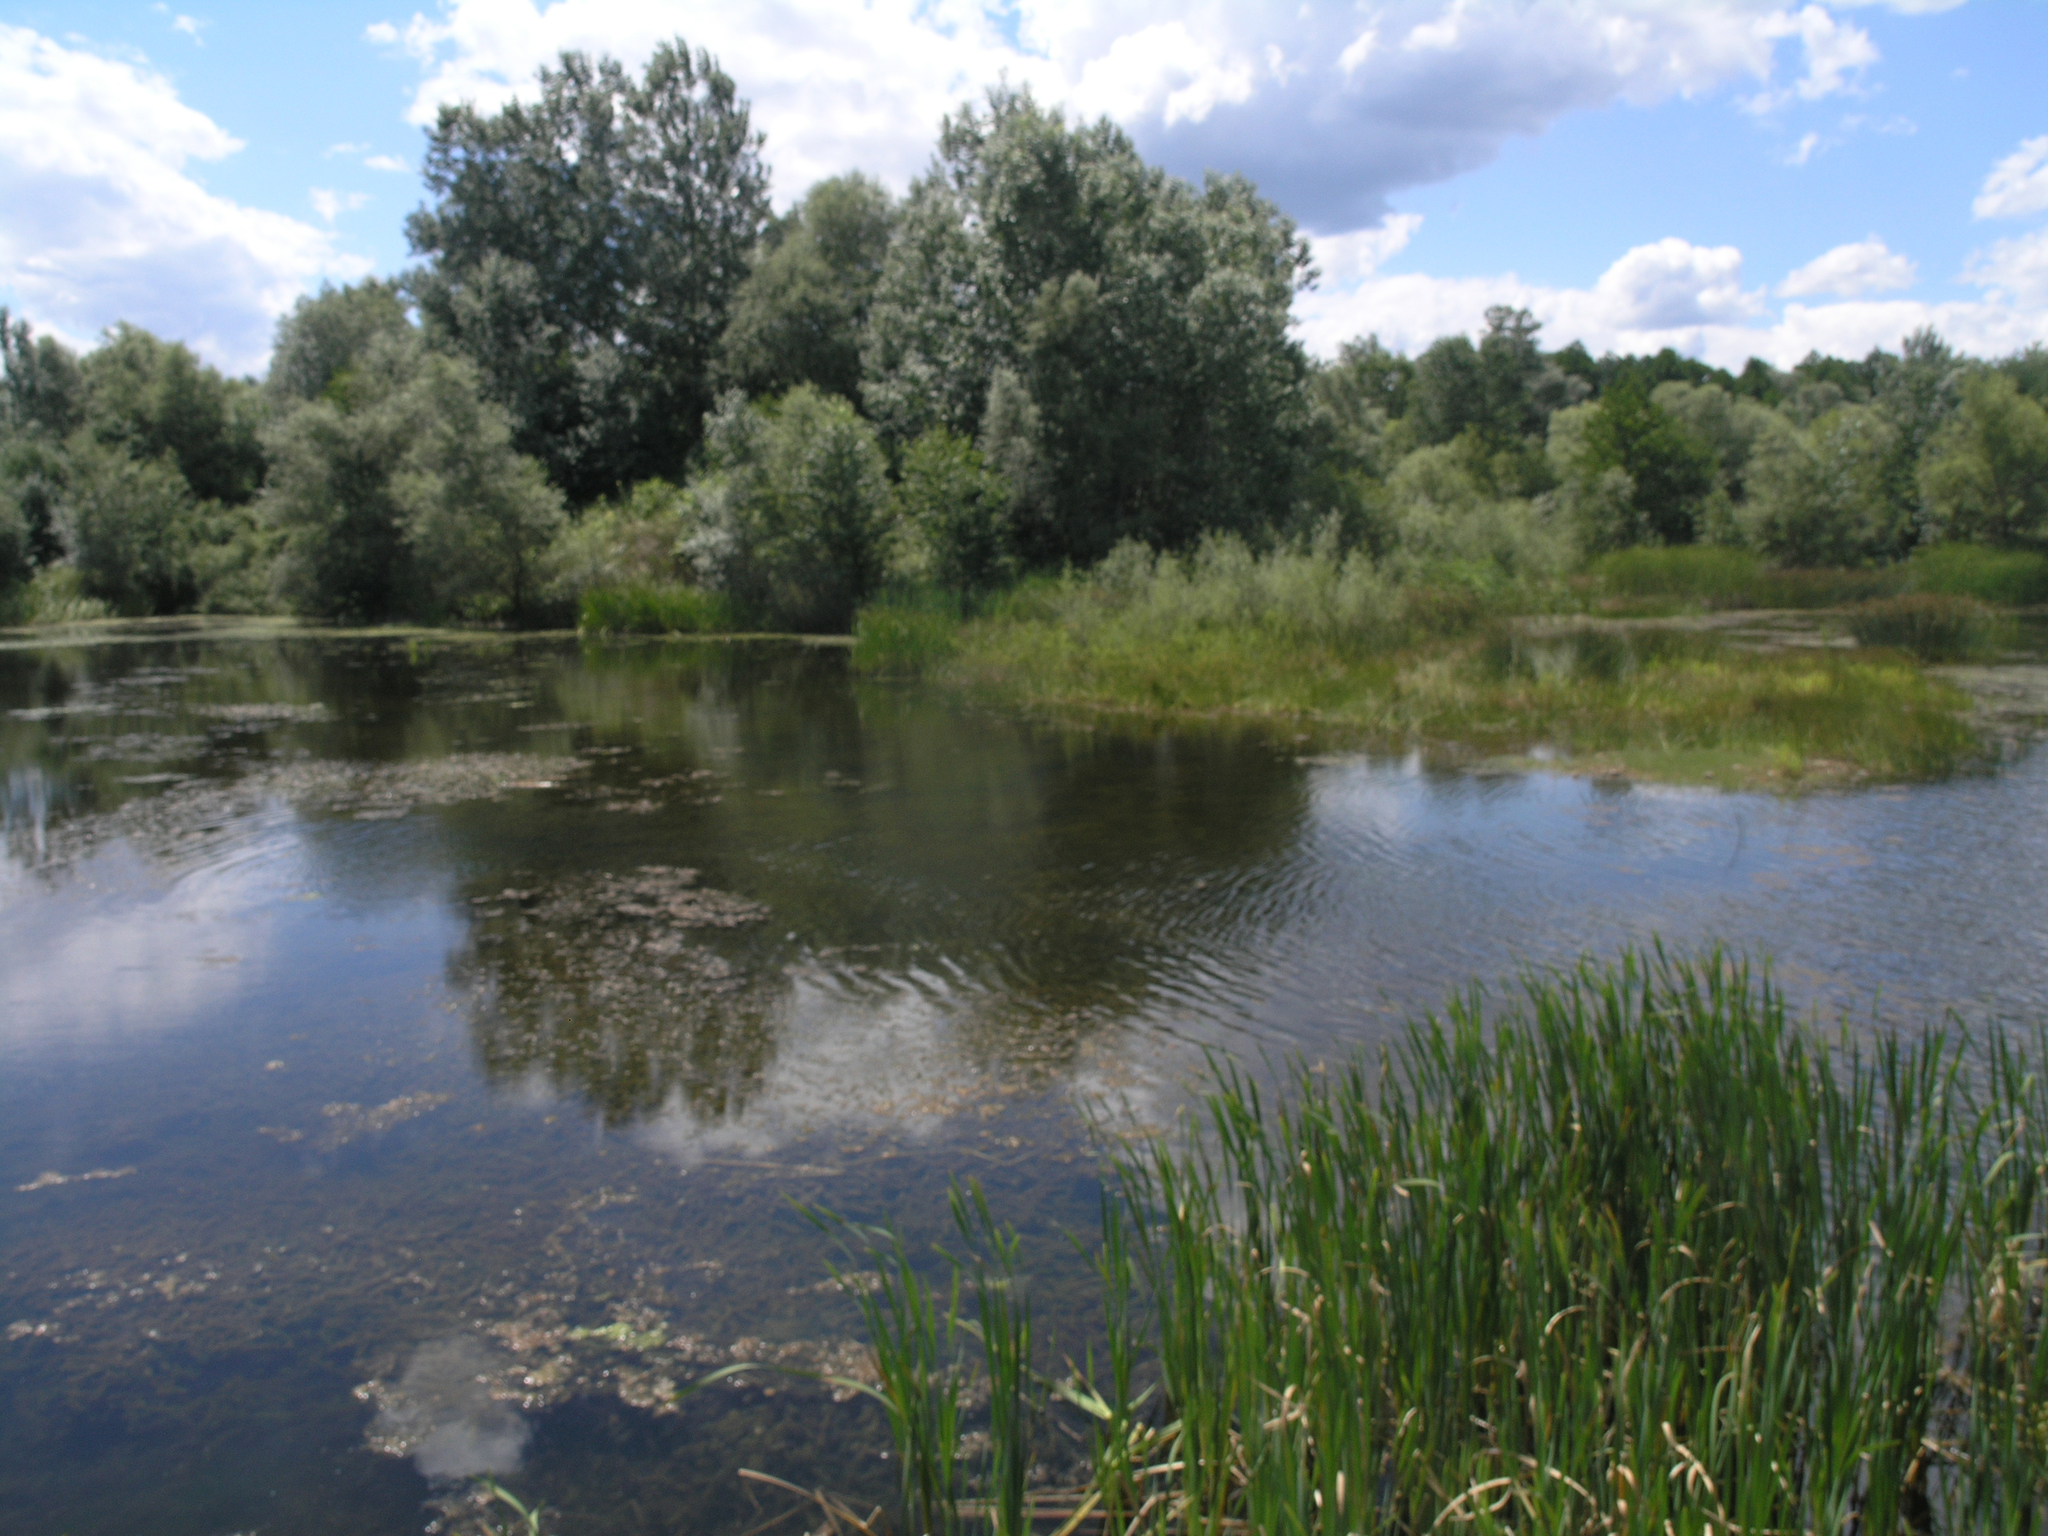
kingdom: Plantae
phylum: Tracheophyta
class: Liliopsida
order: Poales
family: Typhaceae
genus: Typha
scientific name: Typha latifolia
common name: Broadleaf cattail
